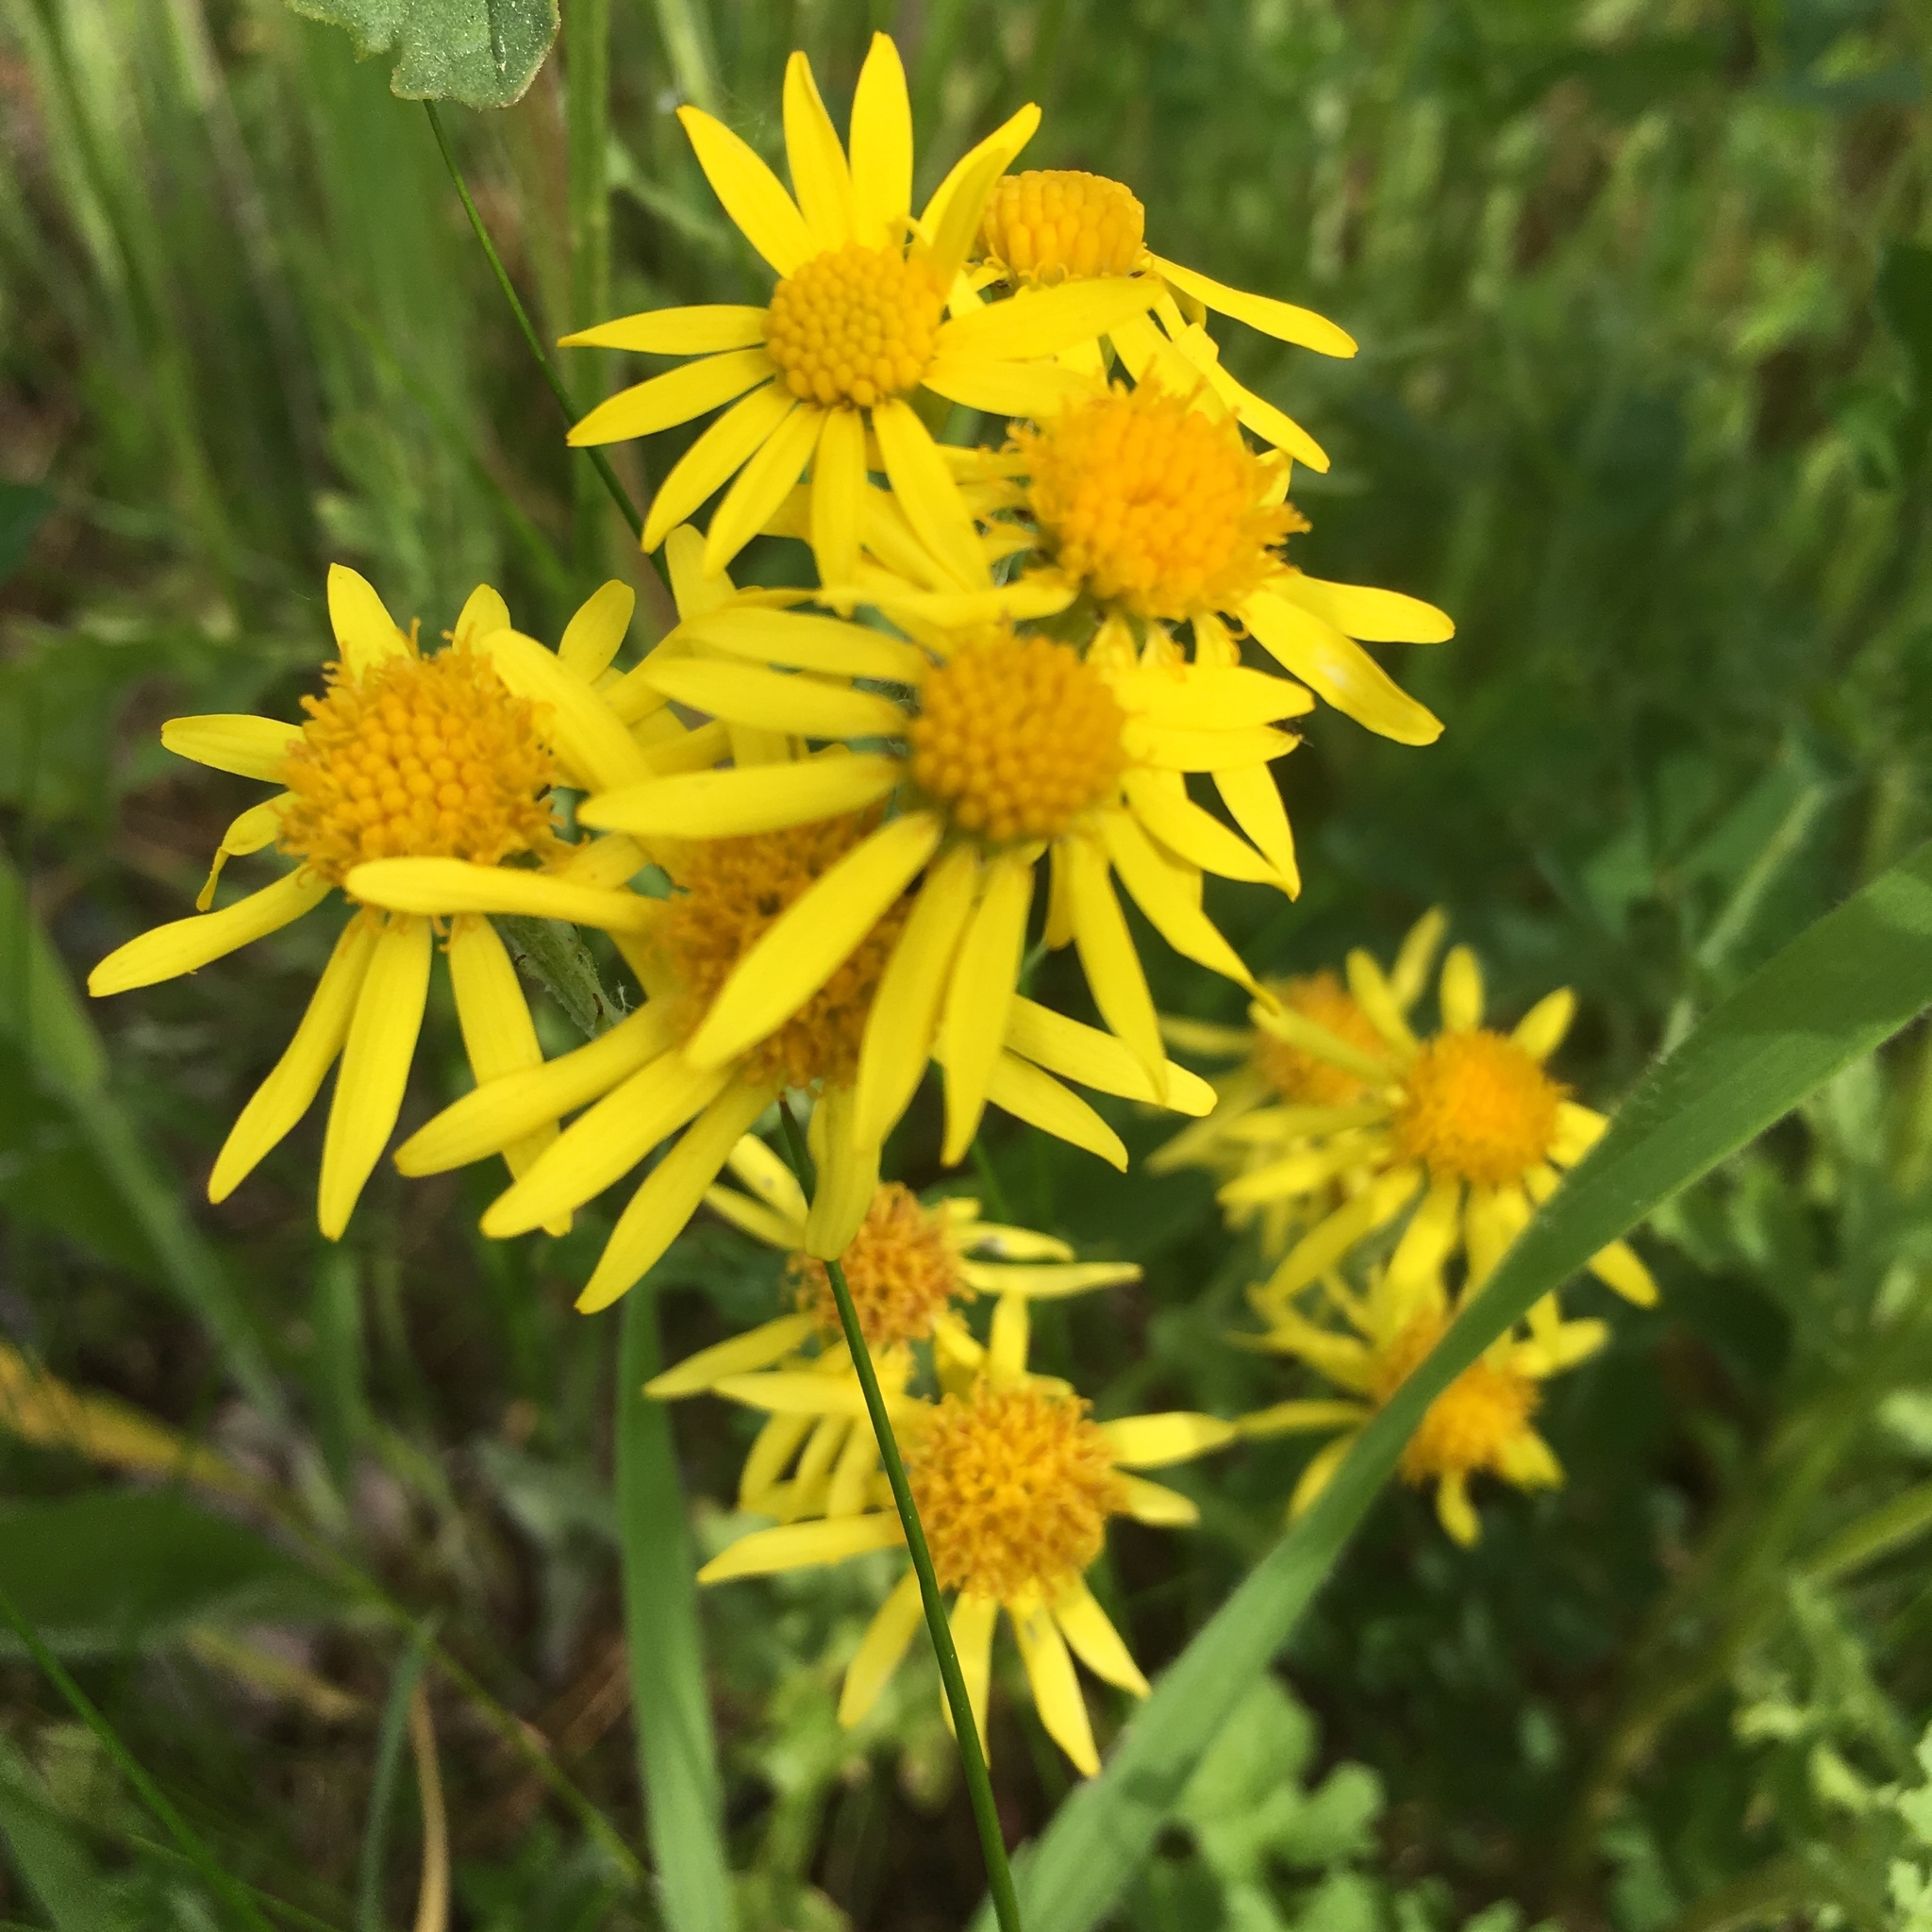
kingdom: Plantae
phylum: Tracheophyta
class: Magnoliopsida
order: Asterales
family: Asteraceae
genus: Jacobaea
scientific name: Jacobaea vulgaris
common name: Stinking willie
